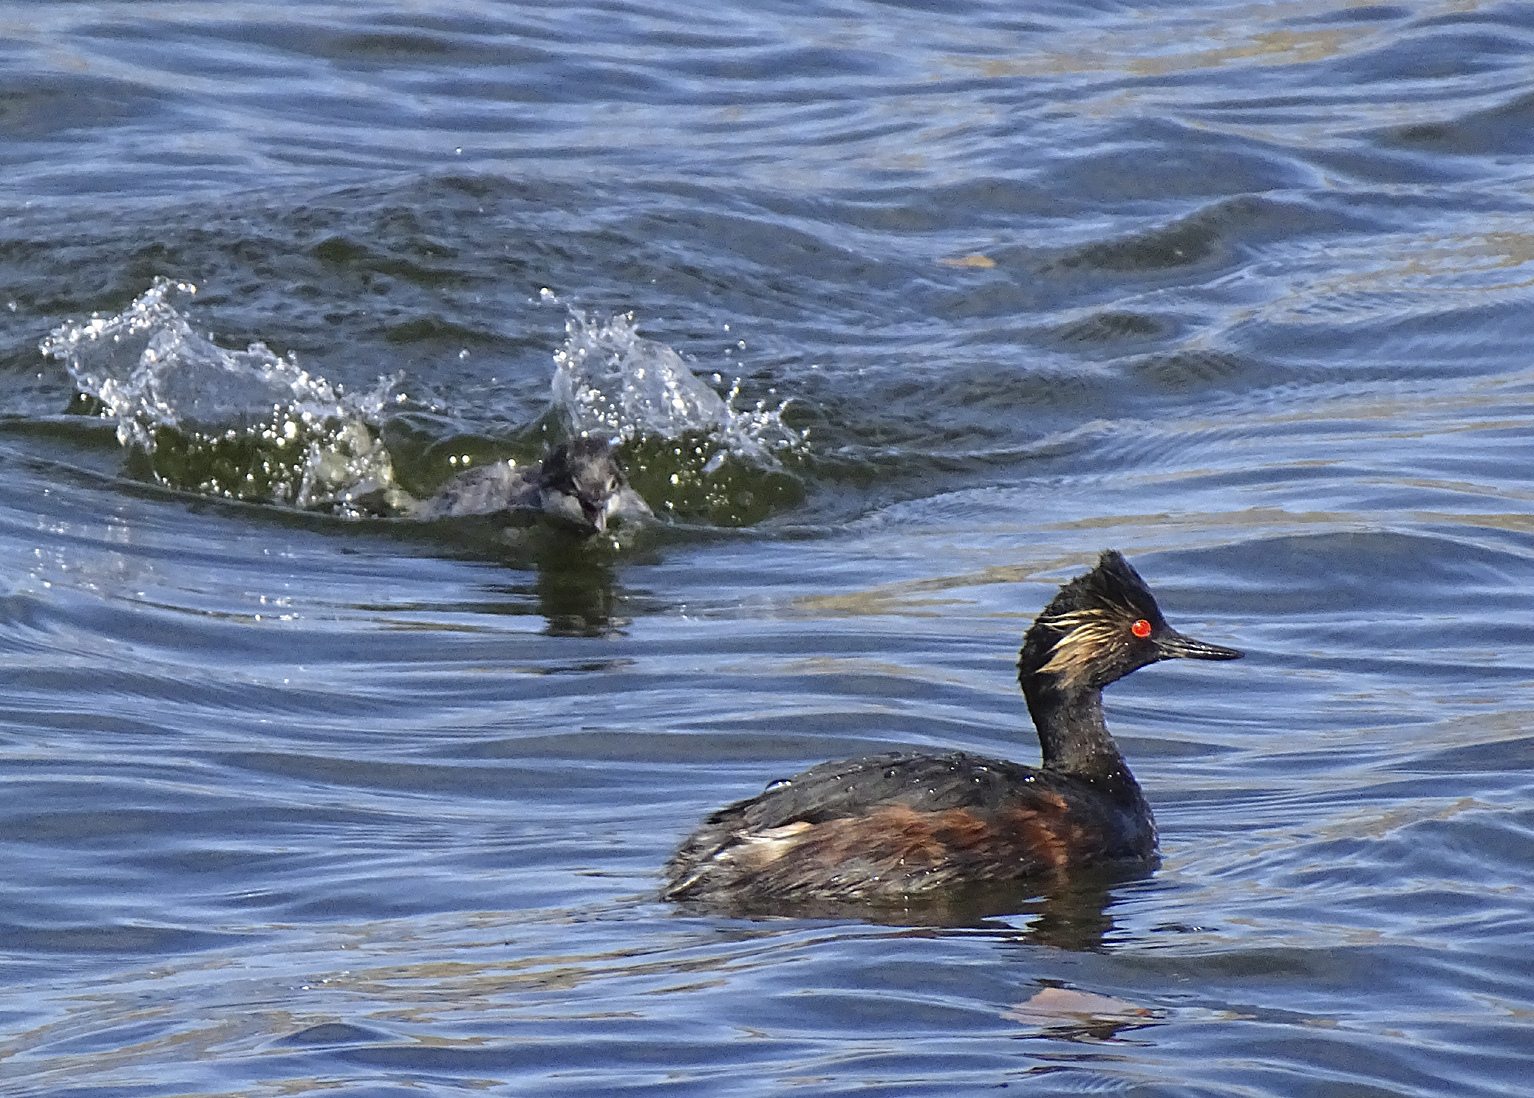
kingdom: Animalia
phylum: Chordata
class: Aves
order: Podicipediformes
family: Podicipedidae
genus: Podiceps
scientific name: Podiceps nigricollis
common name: Black-necked grebe
